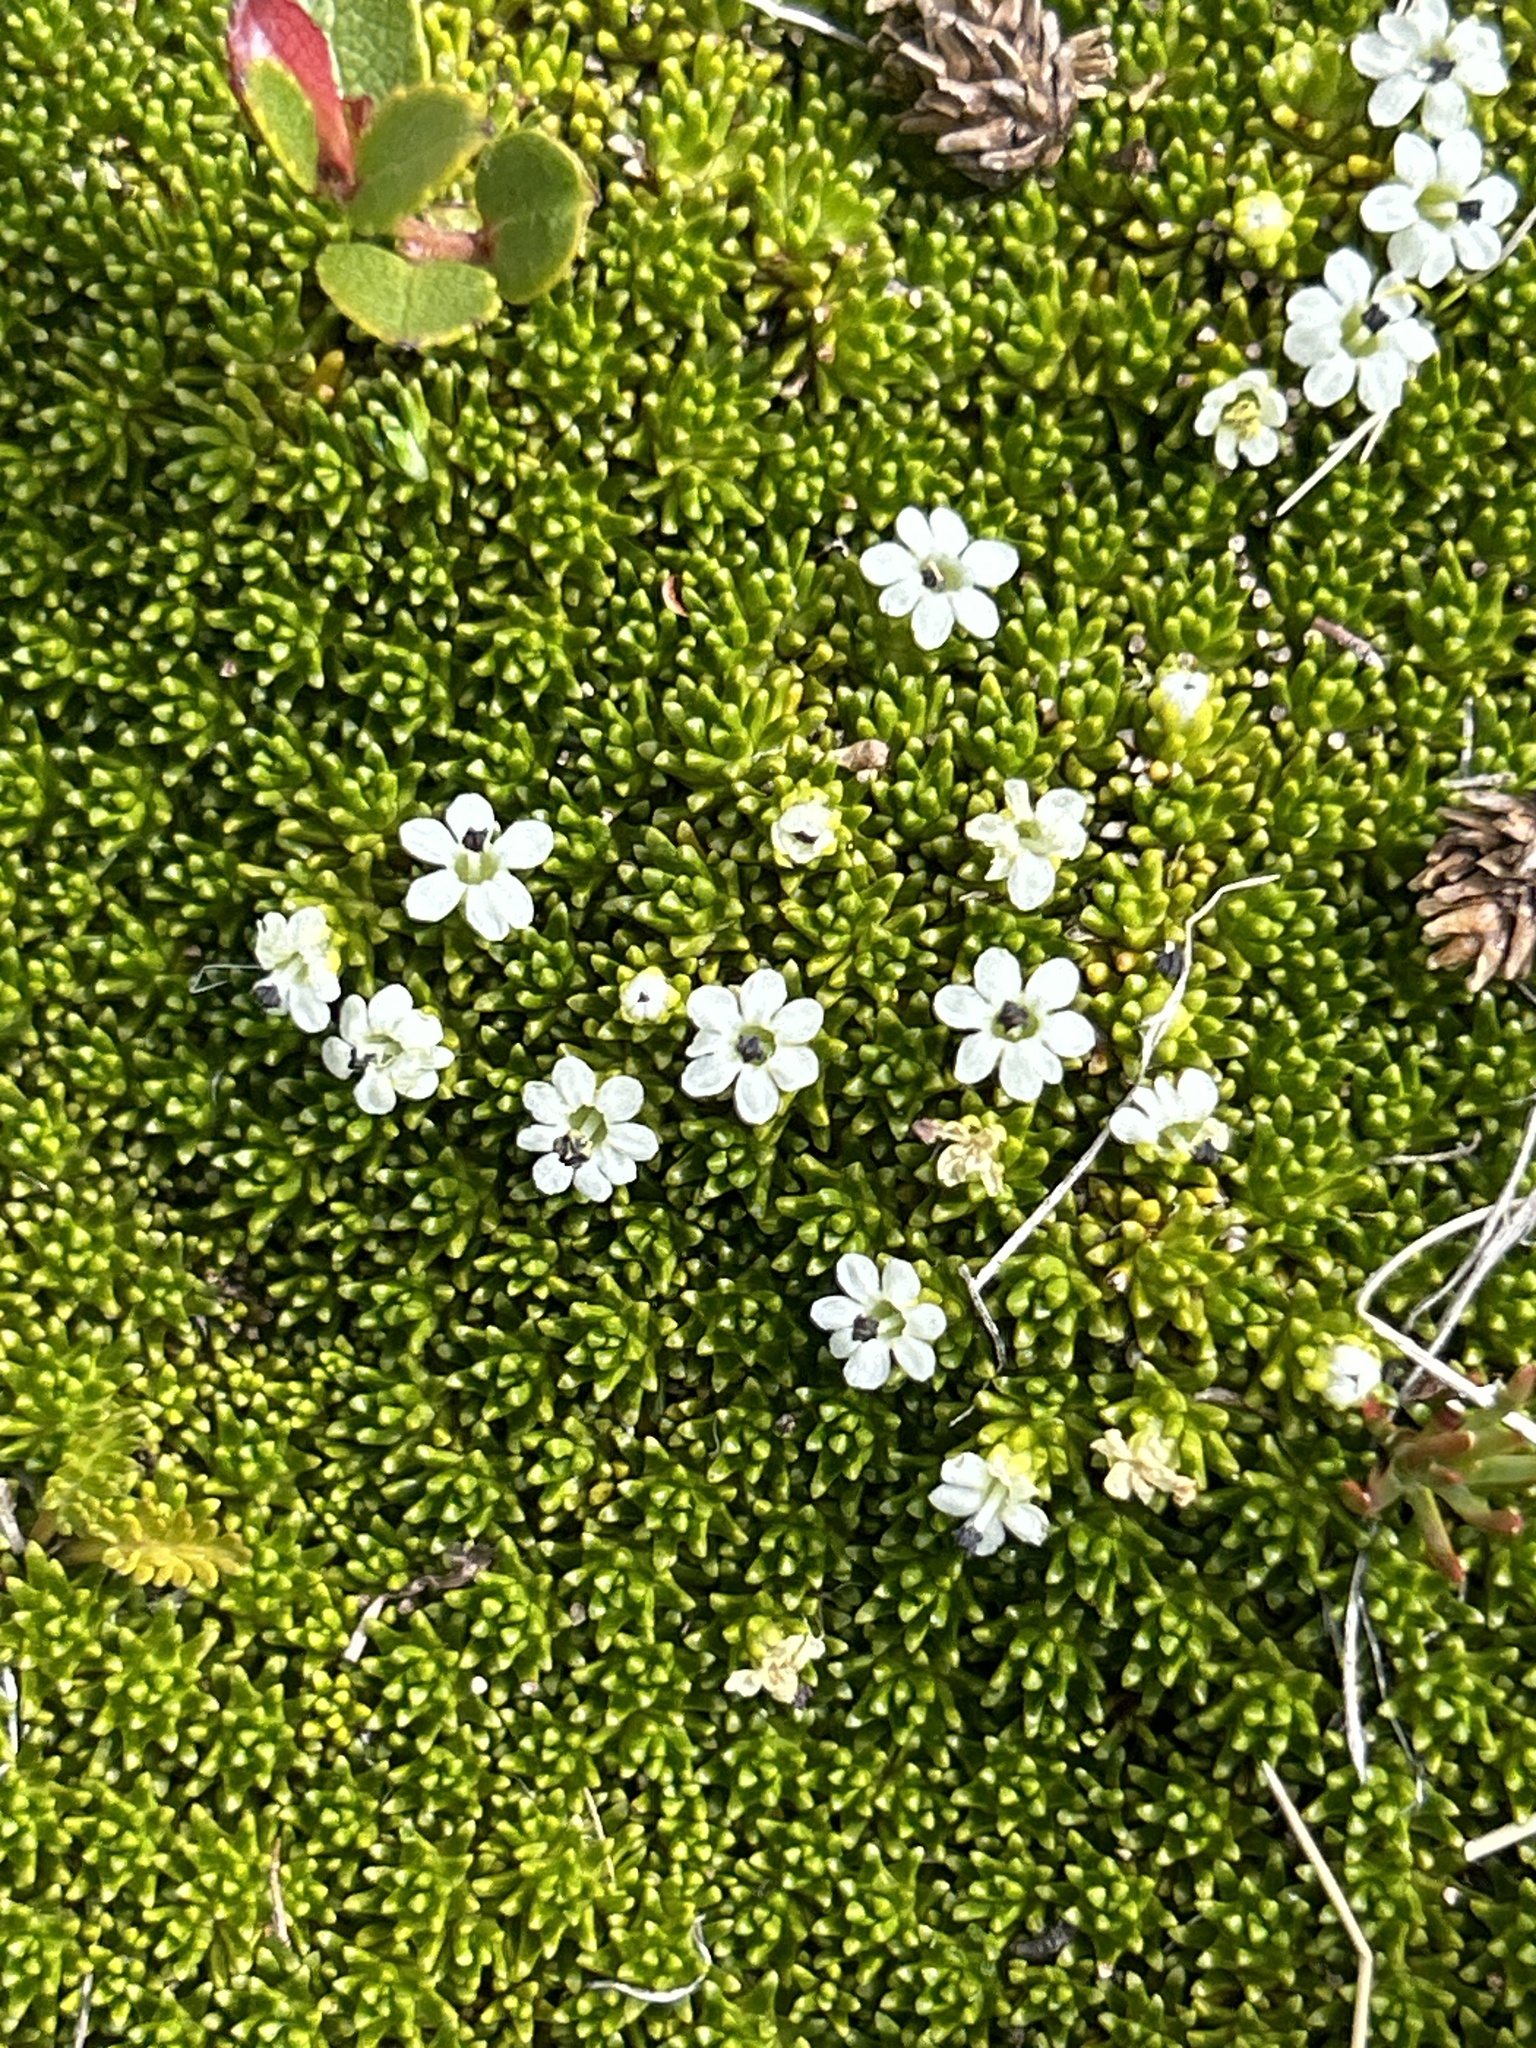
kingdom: Plantae
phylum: Tracheophyta
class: Magnoliopsida
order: Asterales
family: Stylidiaceae
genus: Phyllachne
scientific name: Phyllachne colensoi
